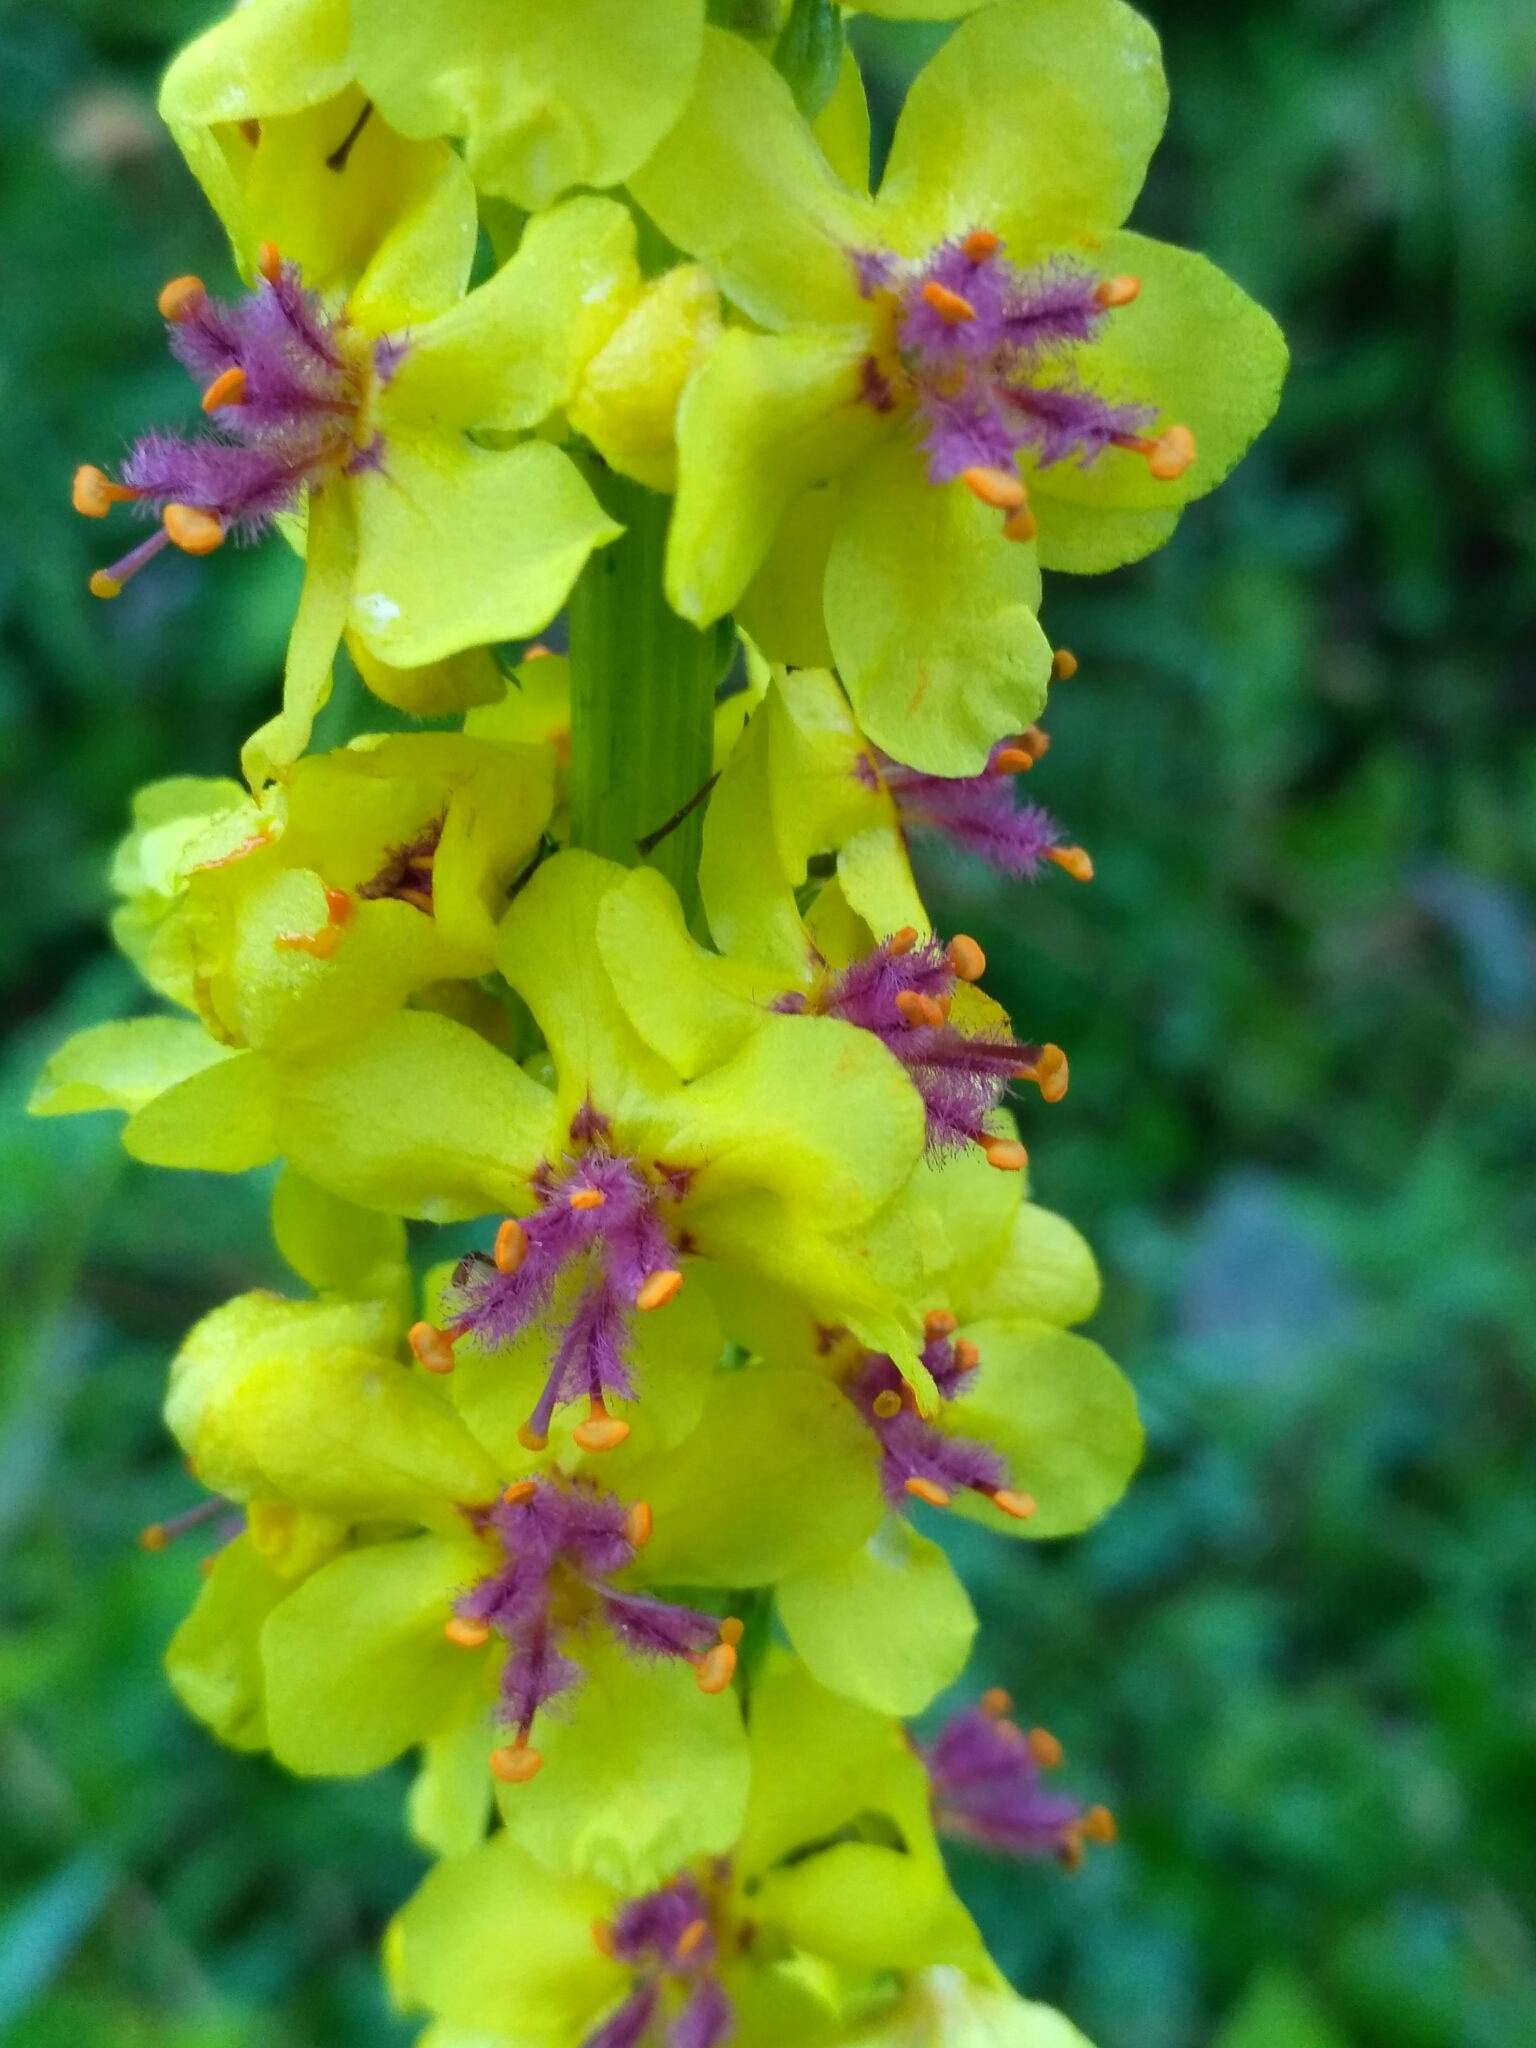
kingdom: Plantae
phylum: Tracheophyta
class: Magnoliopsida
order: Lamiales
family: Scrophulariaceae
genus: Verbascum
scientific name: Verbascum nigrum
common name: Dark mullein
